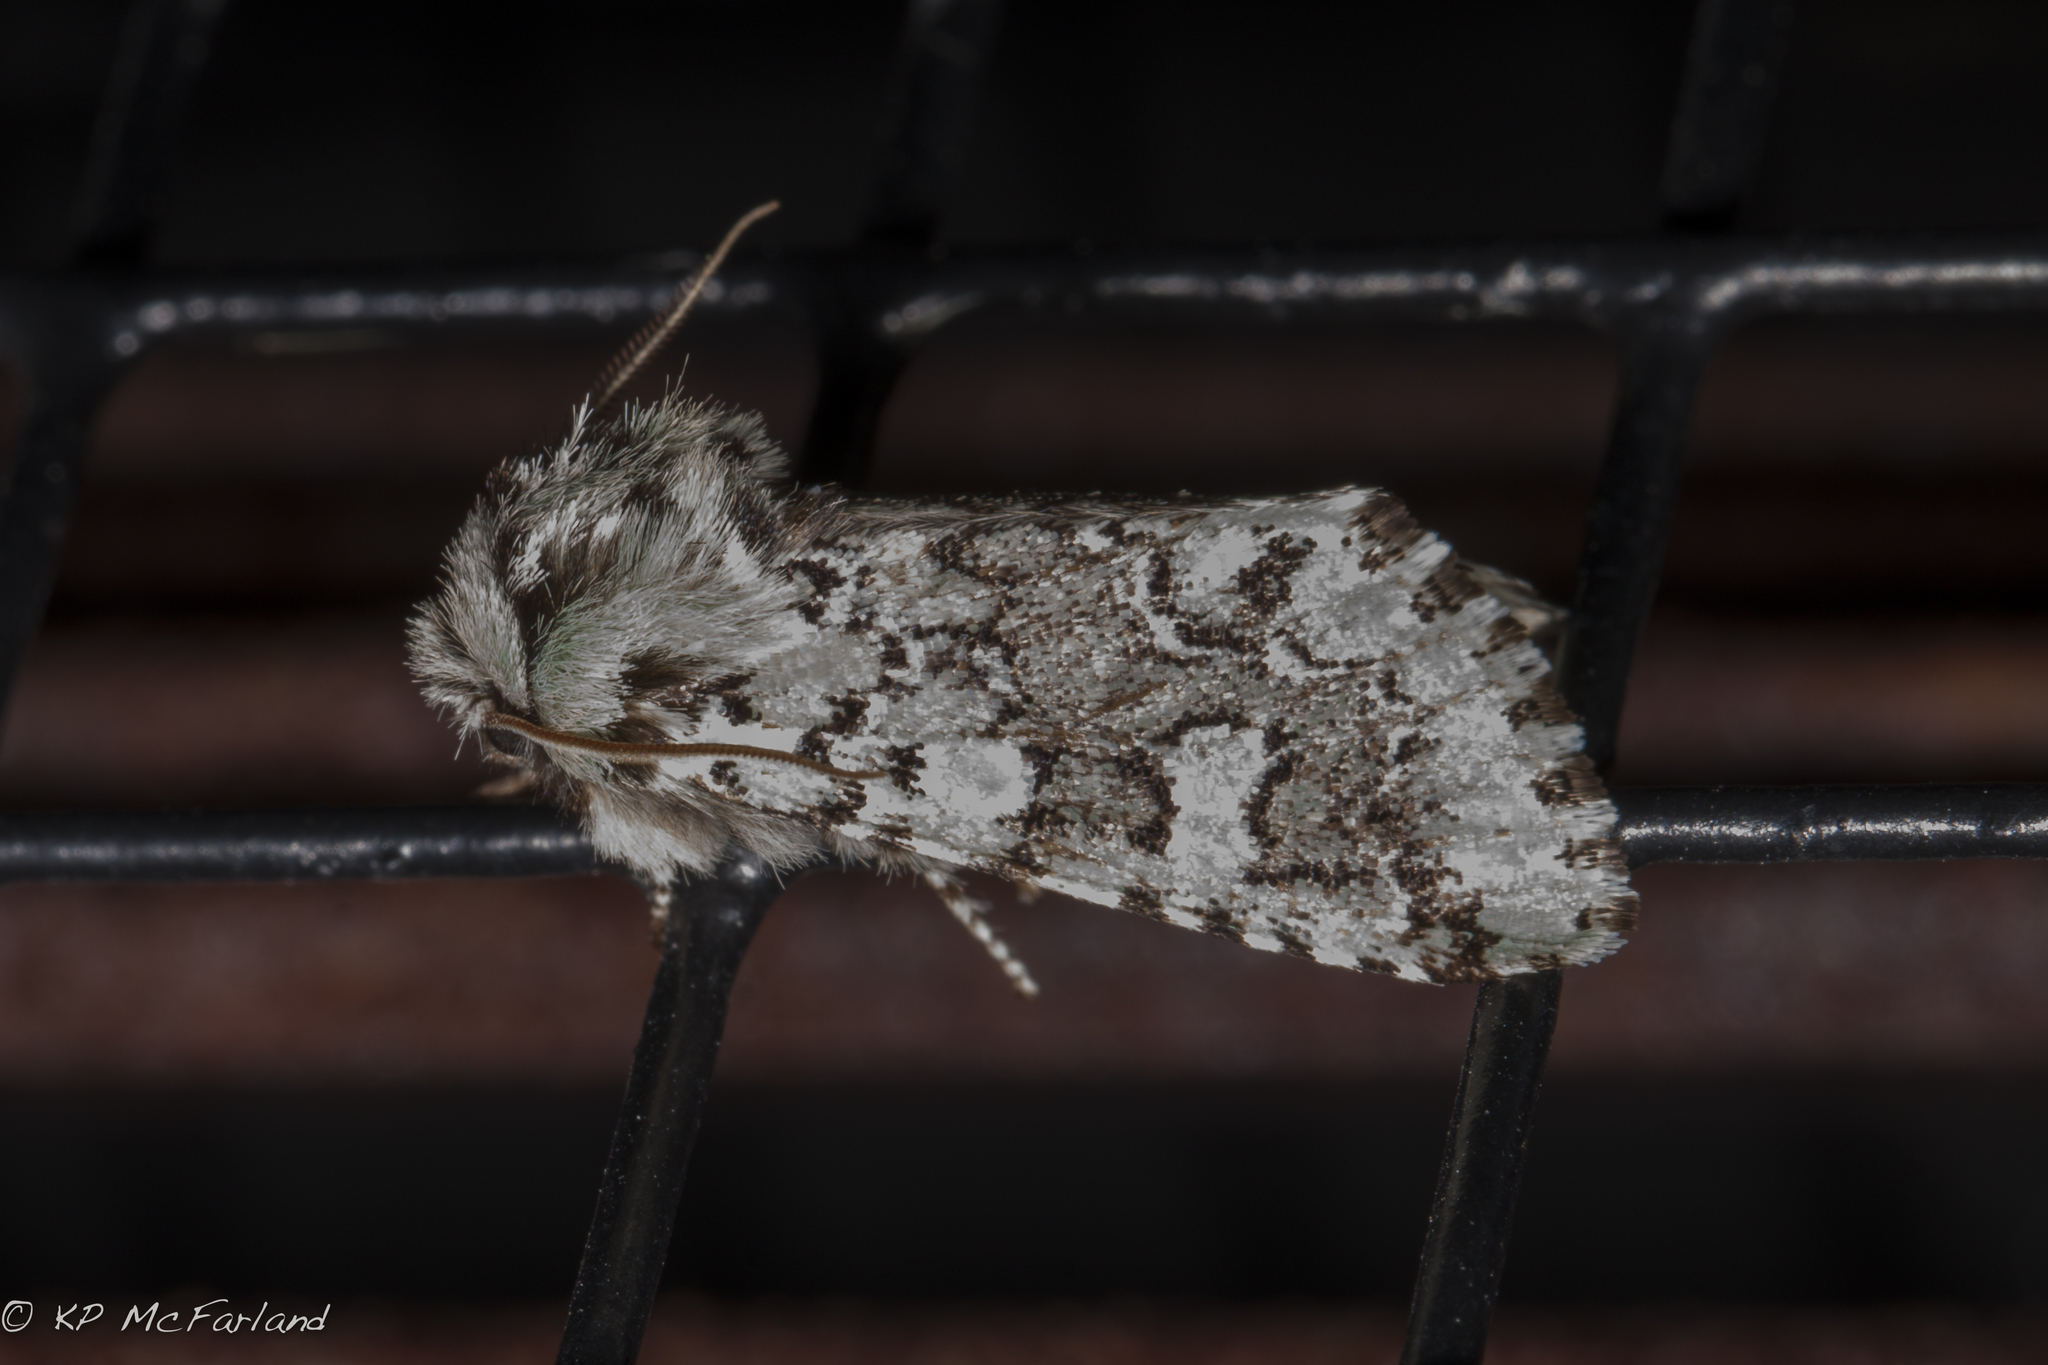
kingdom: Animalia
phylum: Arthropoda
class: Insecta
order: Lepidoptera
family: Noctuidae
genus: Feralia
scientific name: Feralia jocosa
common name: Joker
